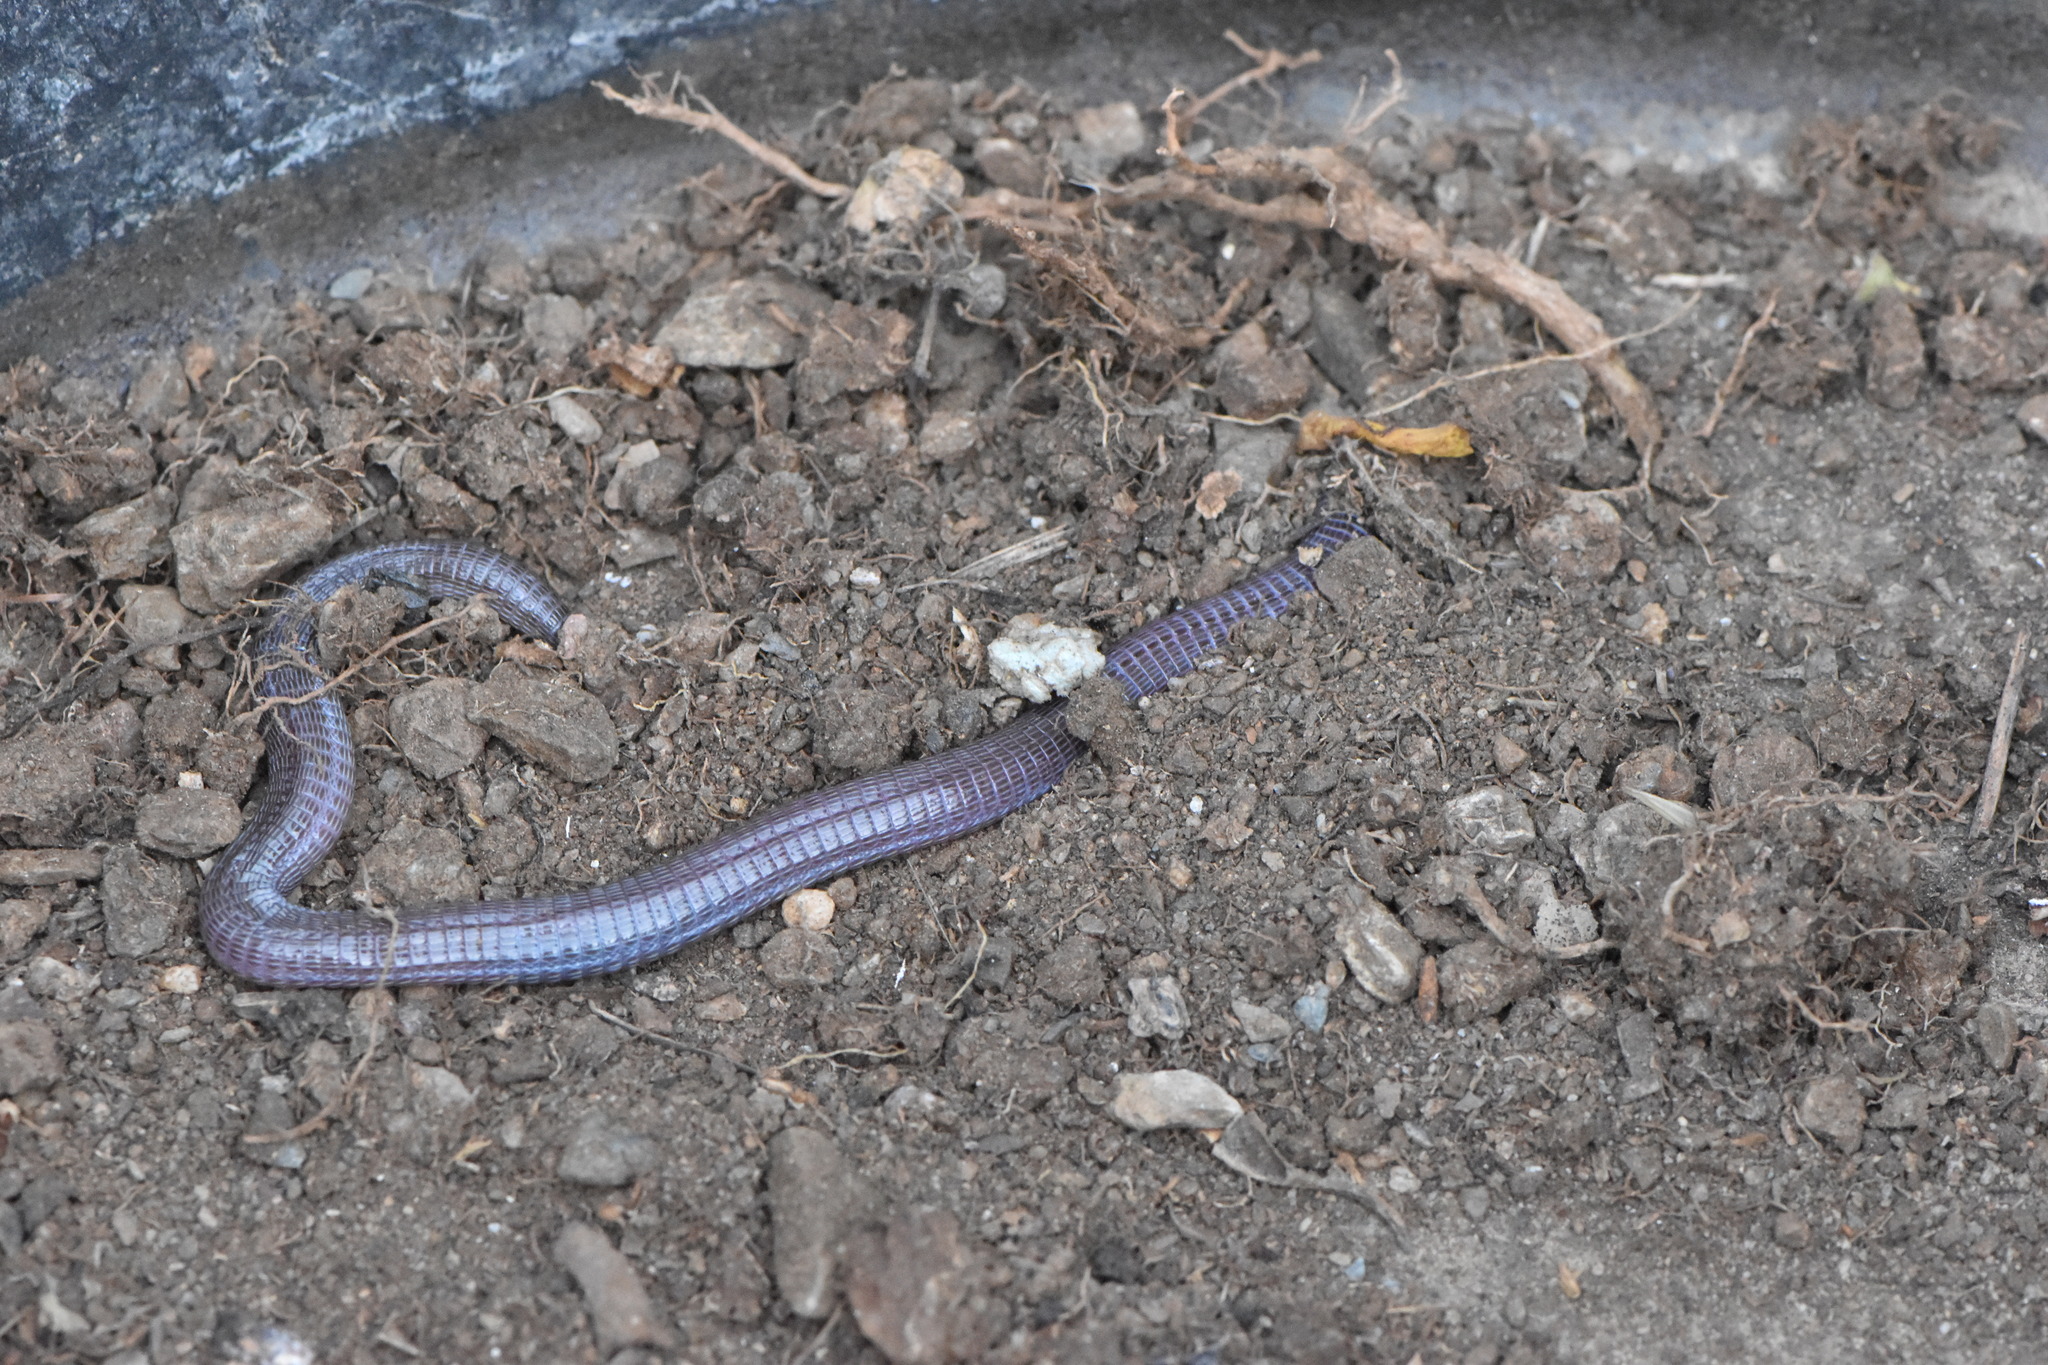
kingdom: Animalia
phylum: Chordata
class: Squamata
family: Blanidae
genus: Blanus
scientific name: Blanus vandellii
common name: Vandelli's worm lizard
